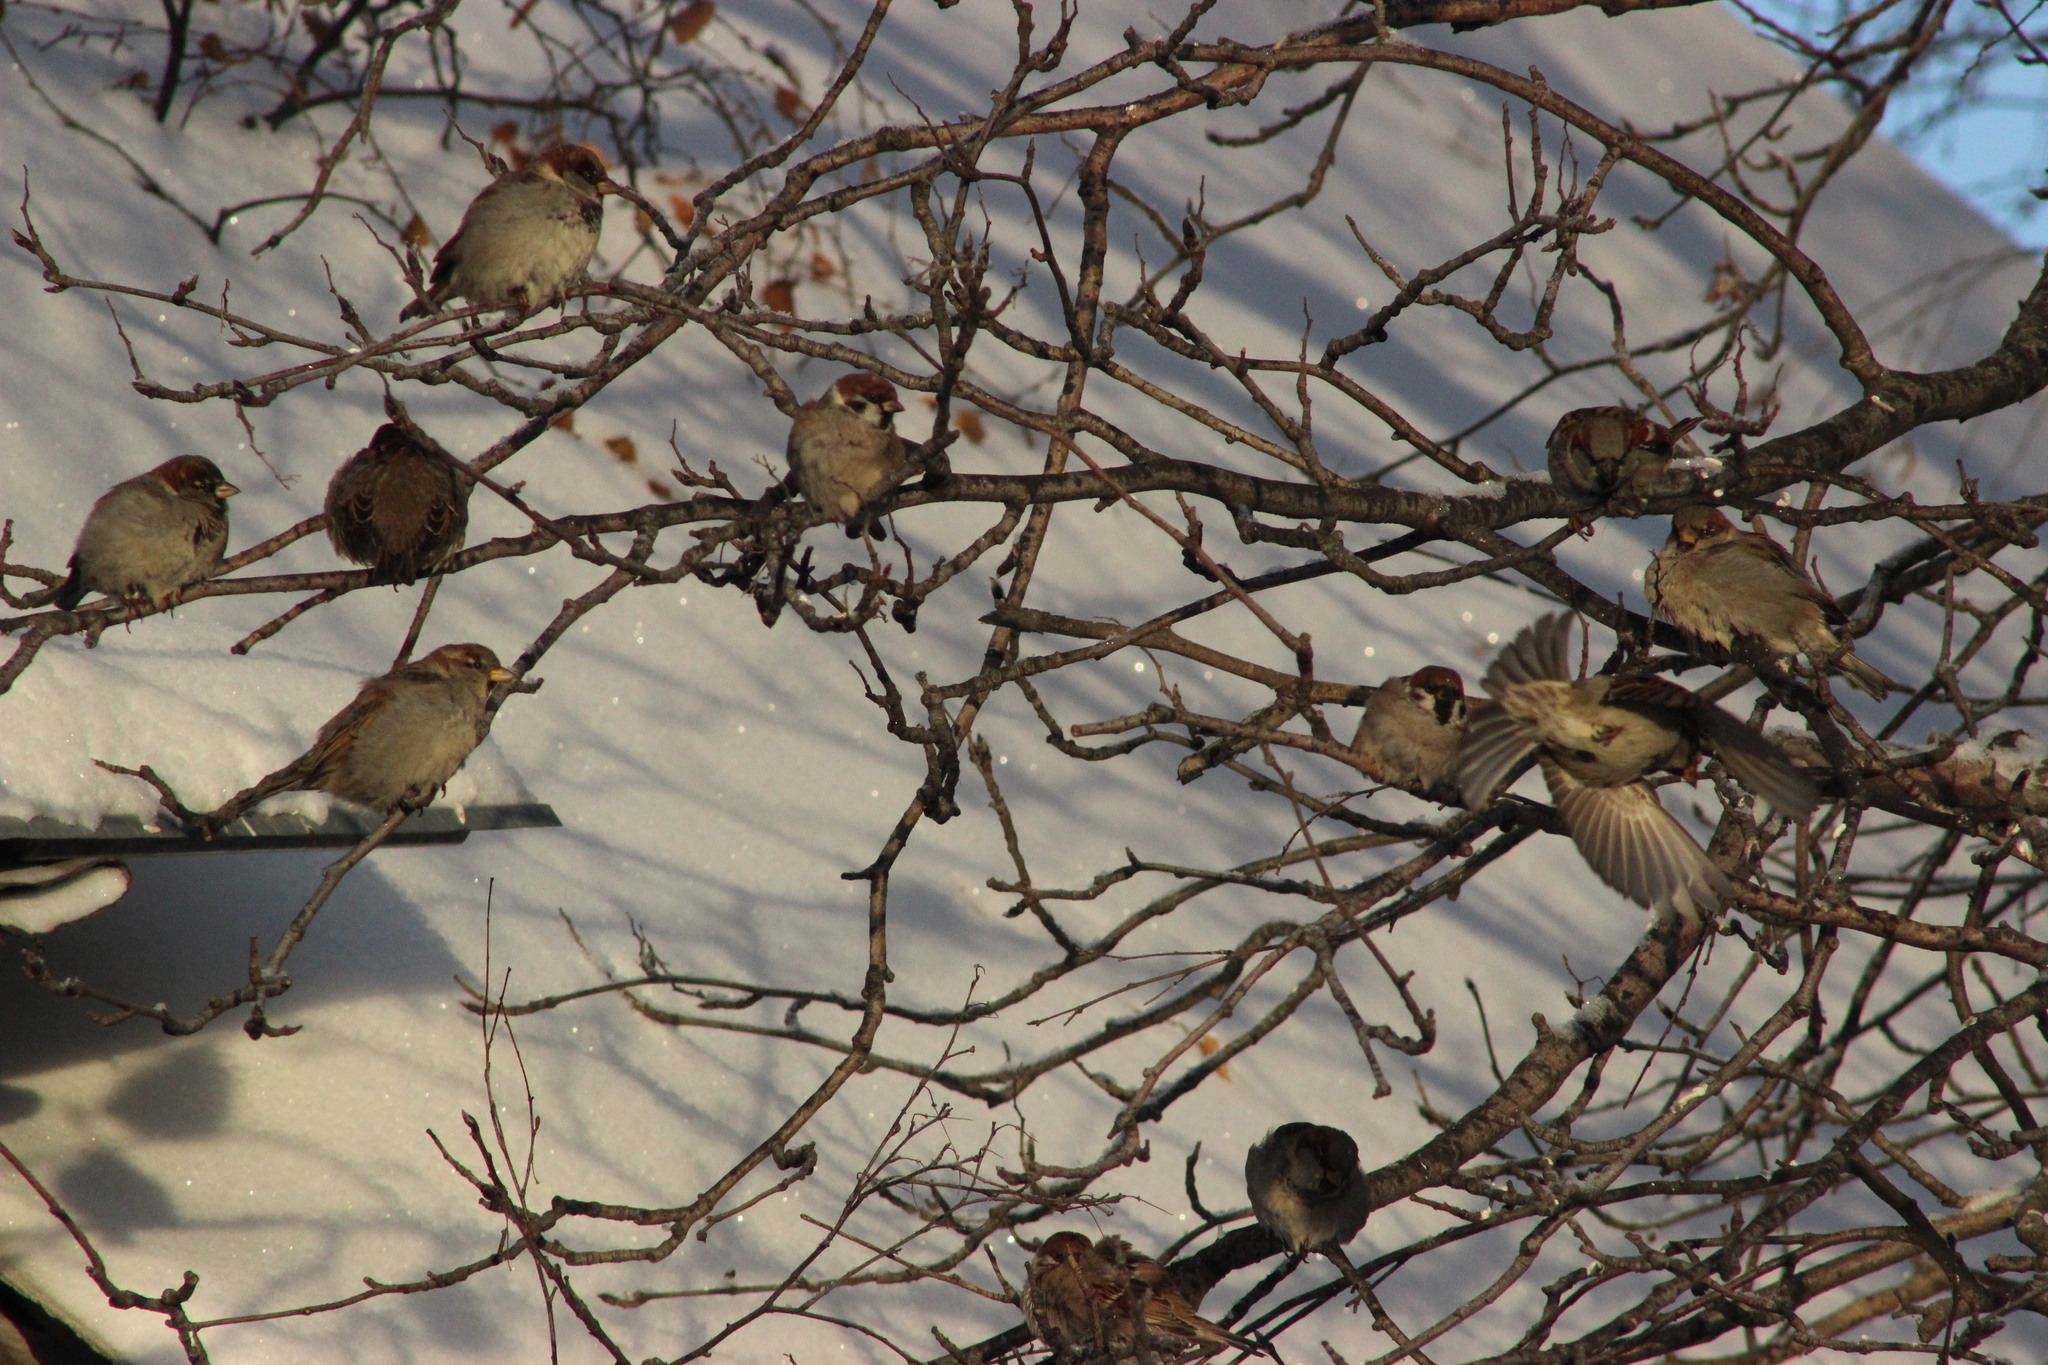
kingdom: Animalia
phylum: Chordata
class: Aves
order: Passeriformes
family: Passeridae
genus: Passer
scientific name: Passer domesticus
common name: House sparrow
